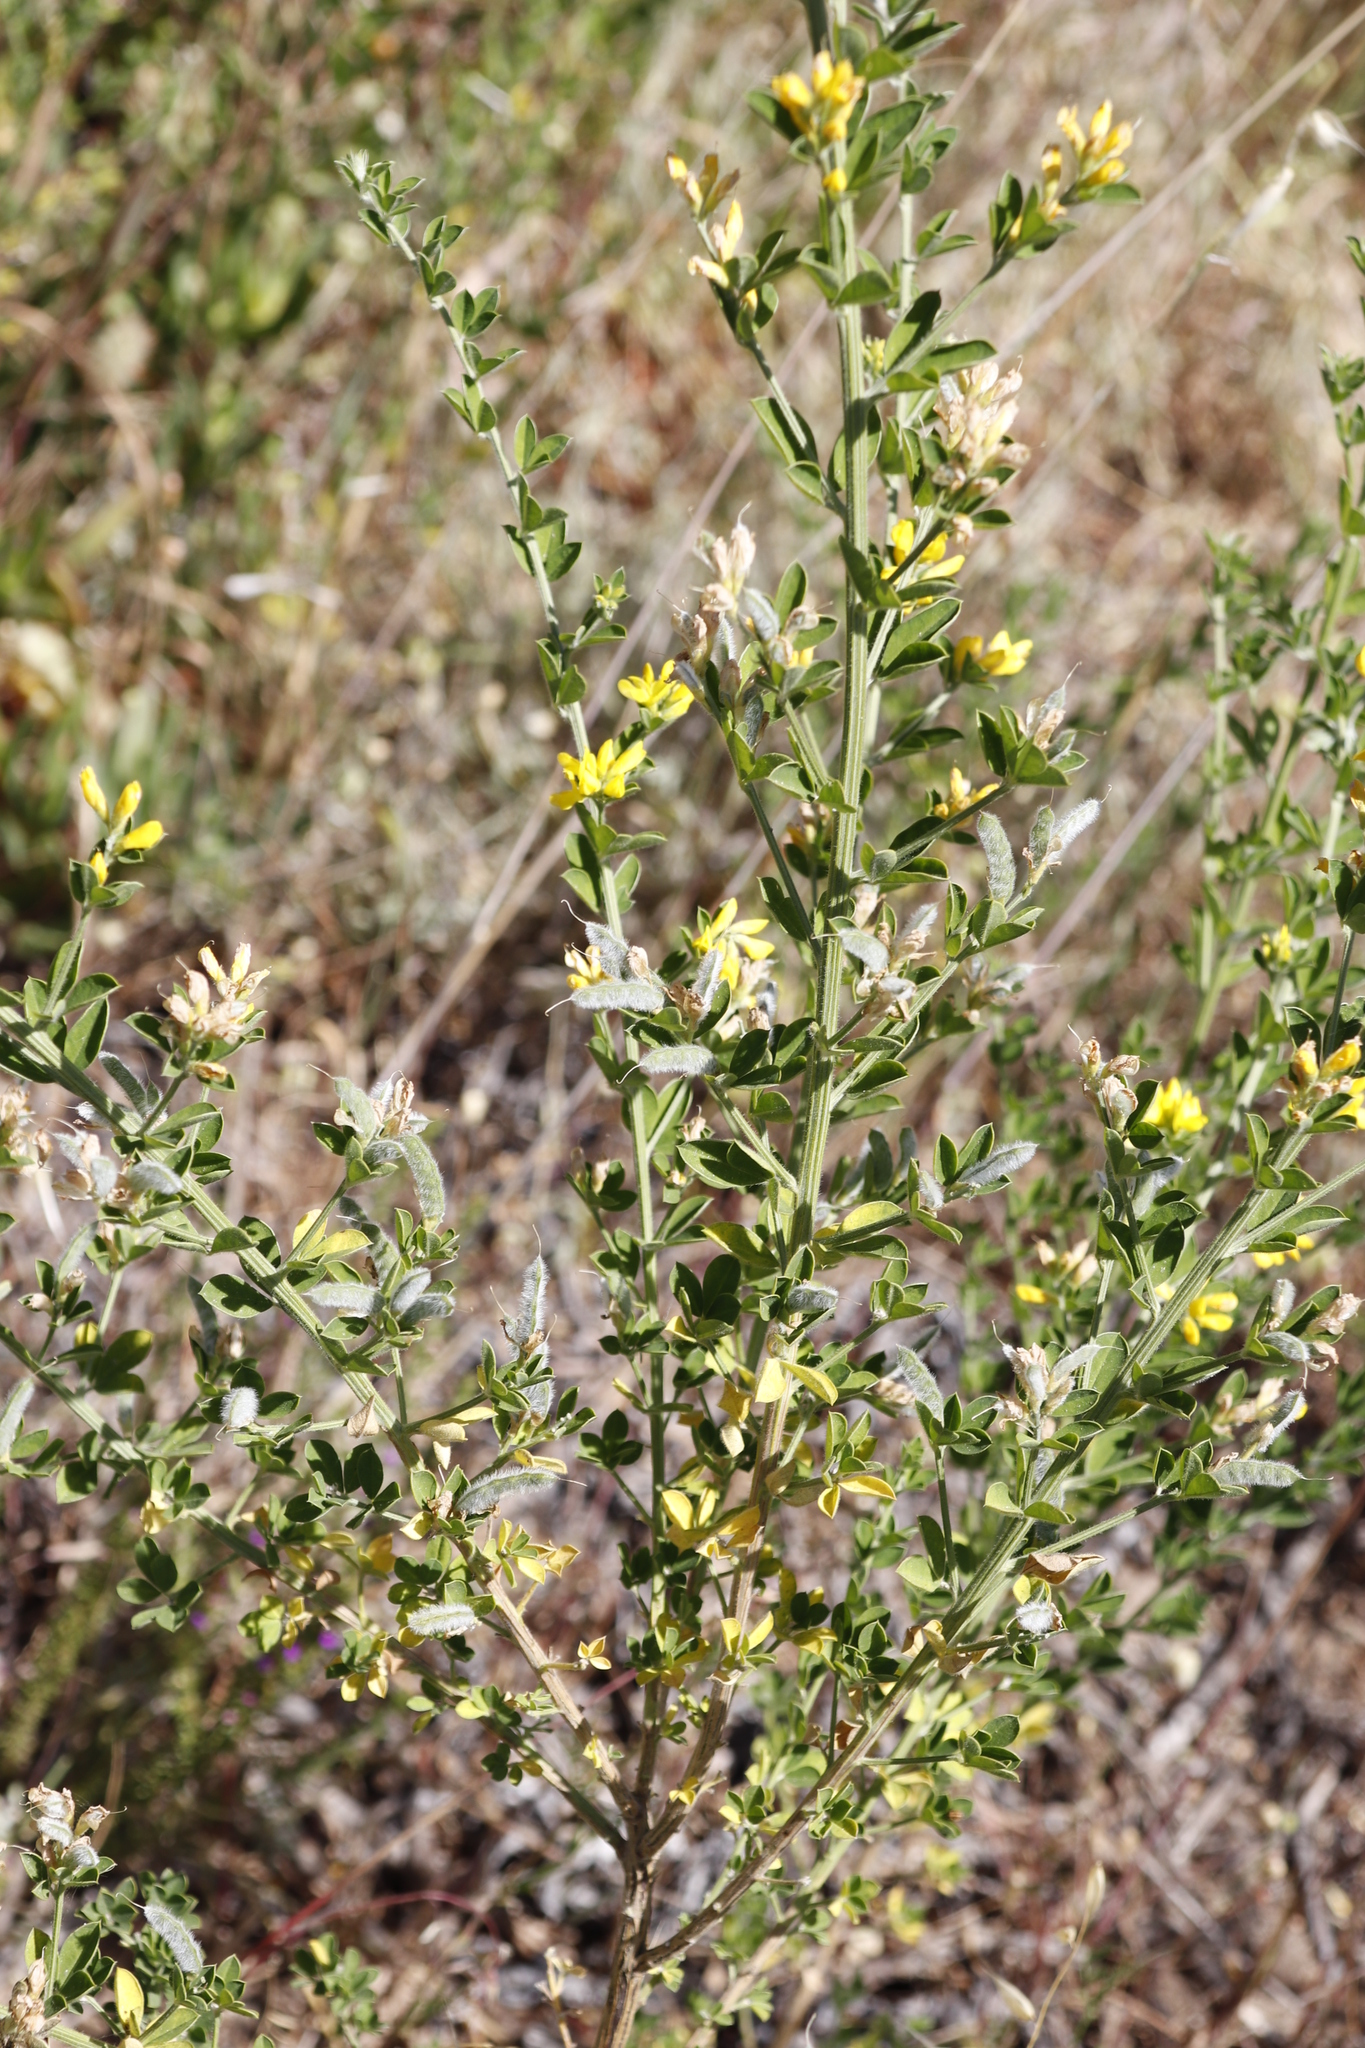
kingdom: Plantae
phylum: Tracheophyta
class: Magnoliopsida
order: Fabales
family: Fabaceae
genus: Genista
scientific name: Genista monspessulana
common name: Montpellier broom
